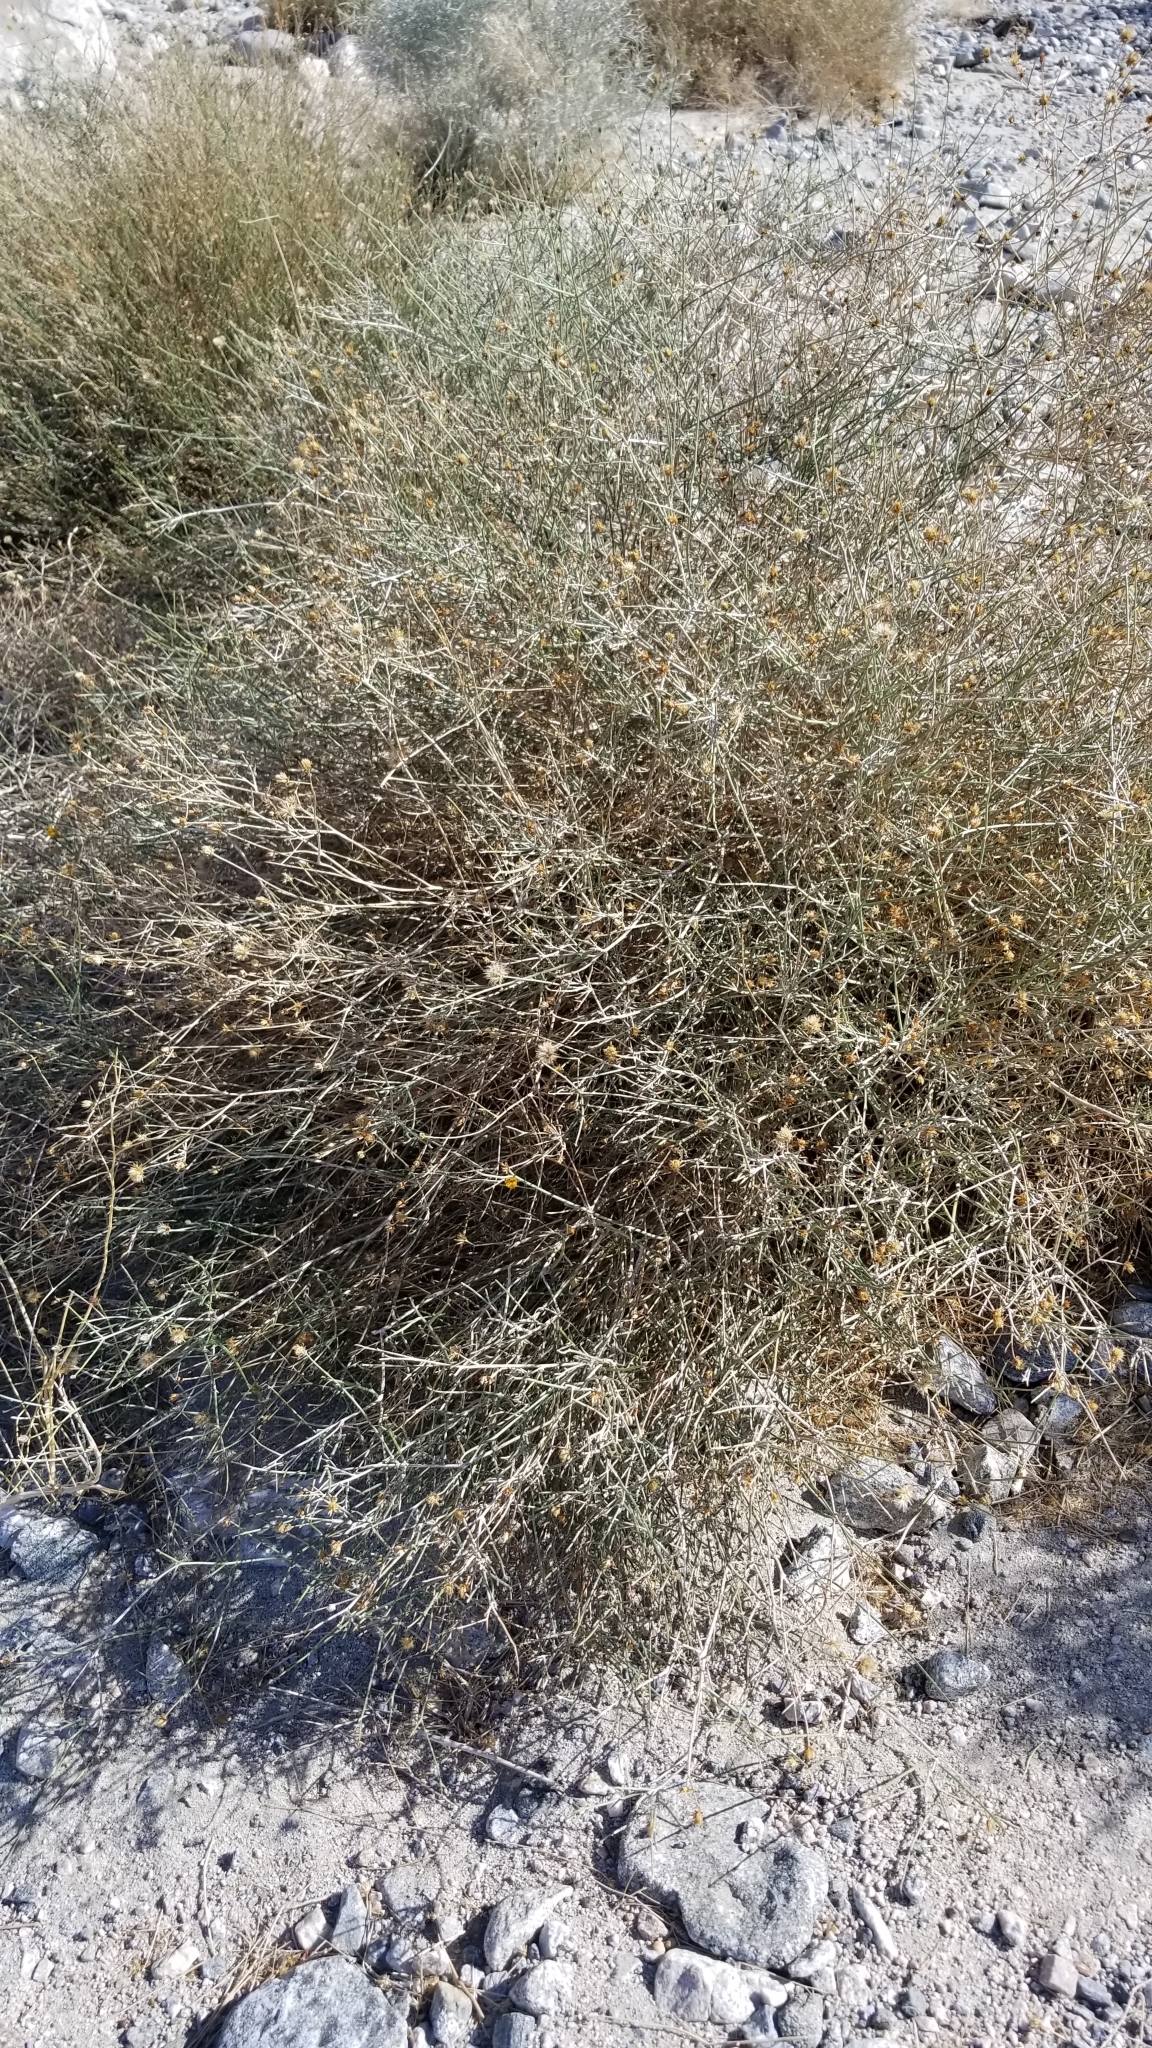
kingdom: Plantae
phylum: Tracheophyta
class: Magnoliopsida
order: Asterales
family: Asteraceae
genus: Bebbia
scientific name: Bebbia juncea
